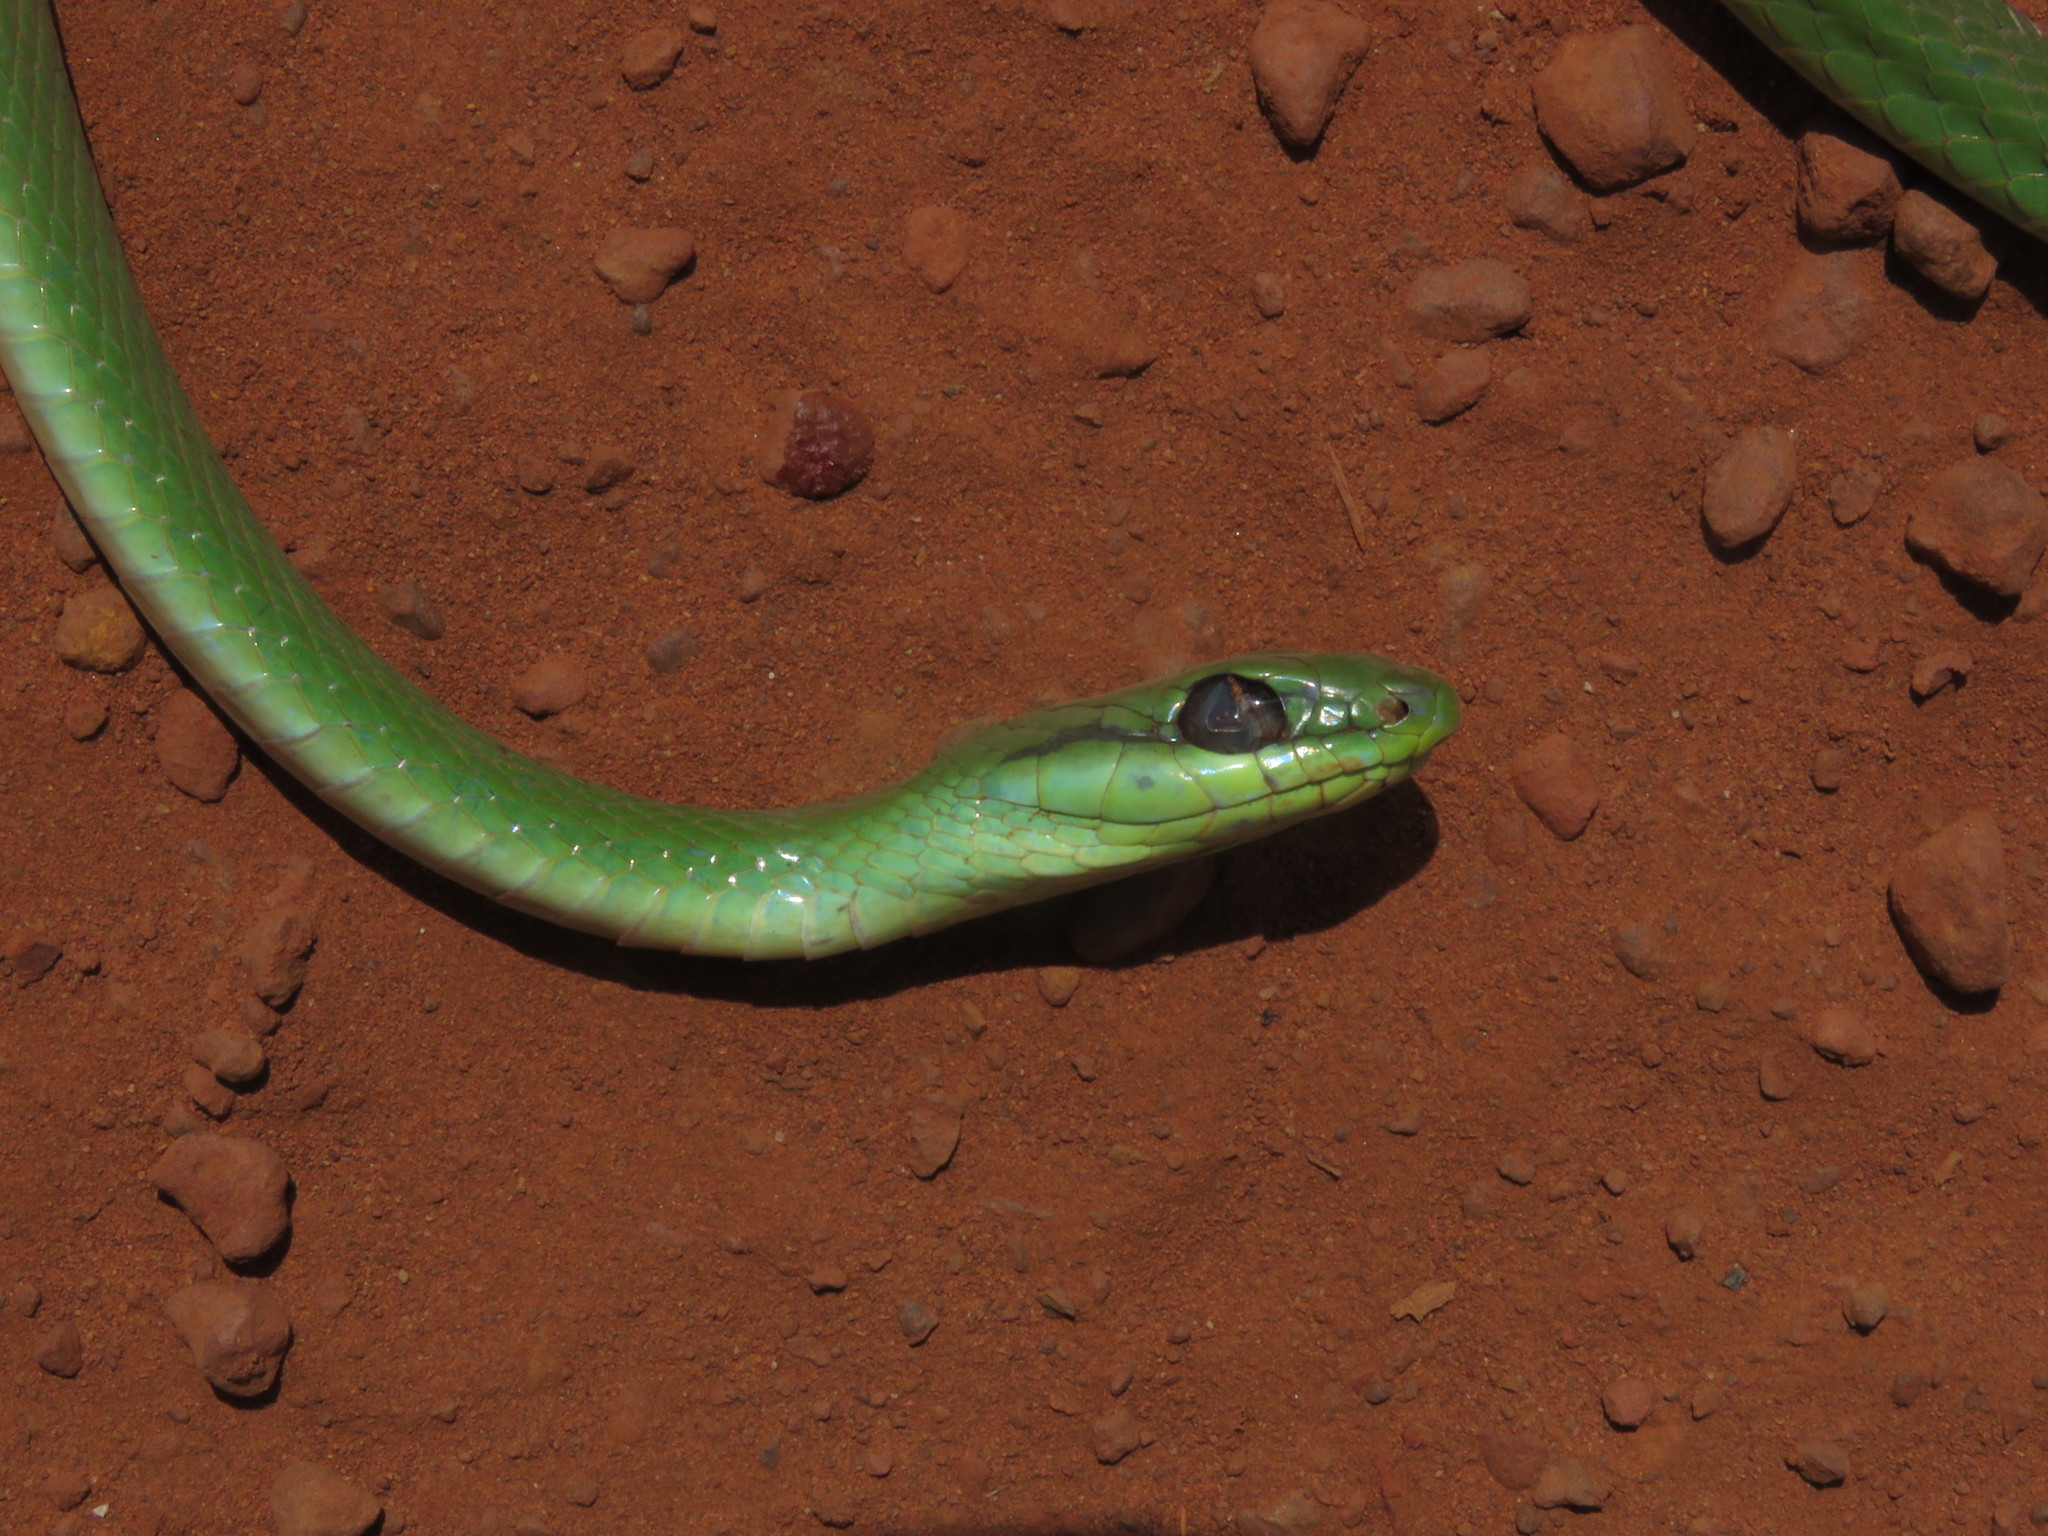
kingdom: Animalia
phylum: Chordata
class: Squamata
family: Colubridae
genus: Philodryas
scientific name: Philodryas olfersii
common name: Lichtenstein's green racer
